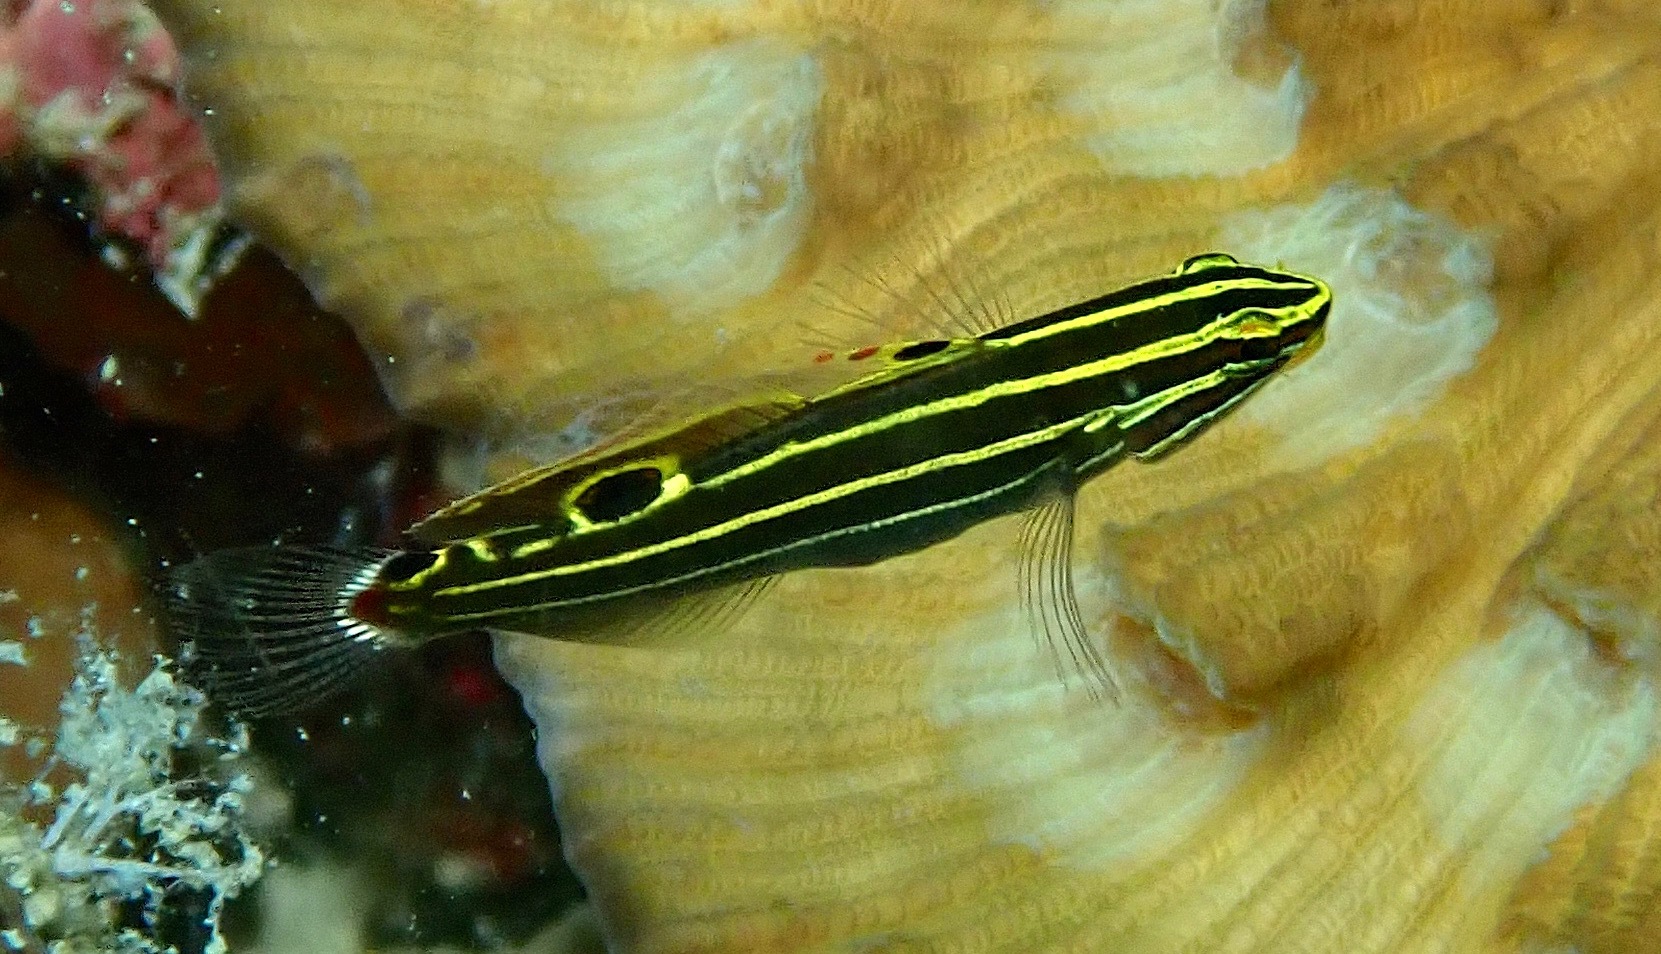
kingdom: Animalia
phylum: Chordata
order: Perciformes
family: Gobiidae
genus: Koumansetta
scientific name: Koumansetta hectori
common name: Hector's goby
